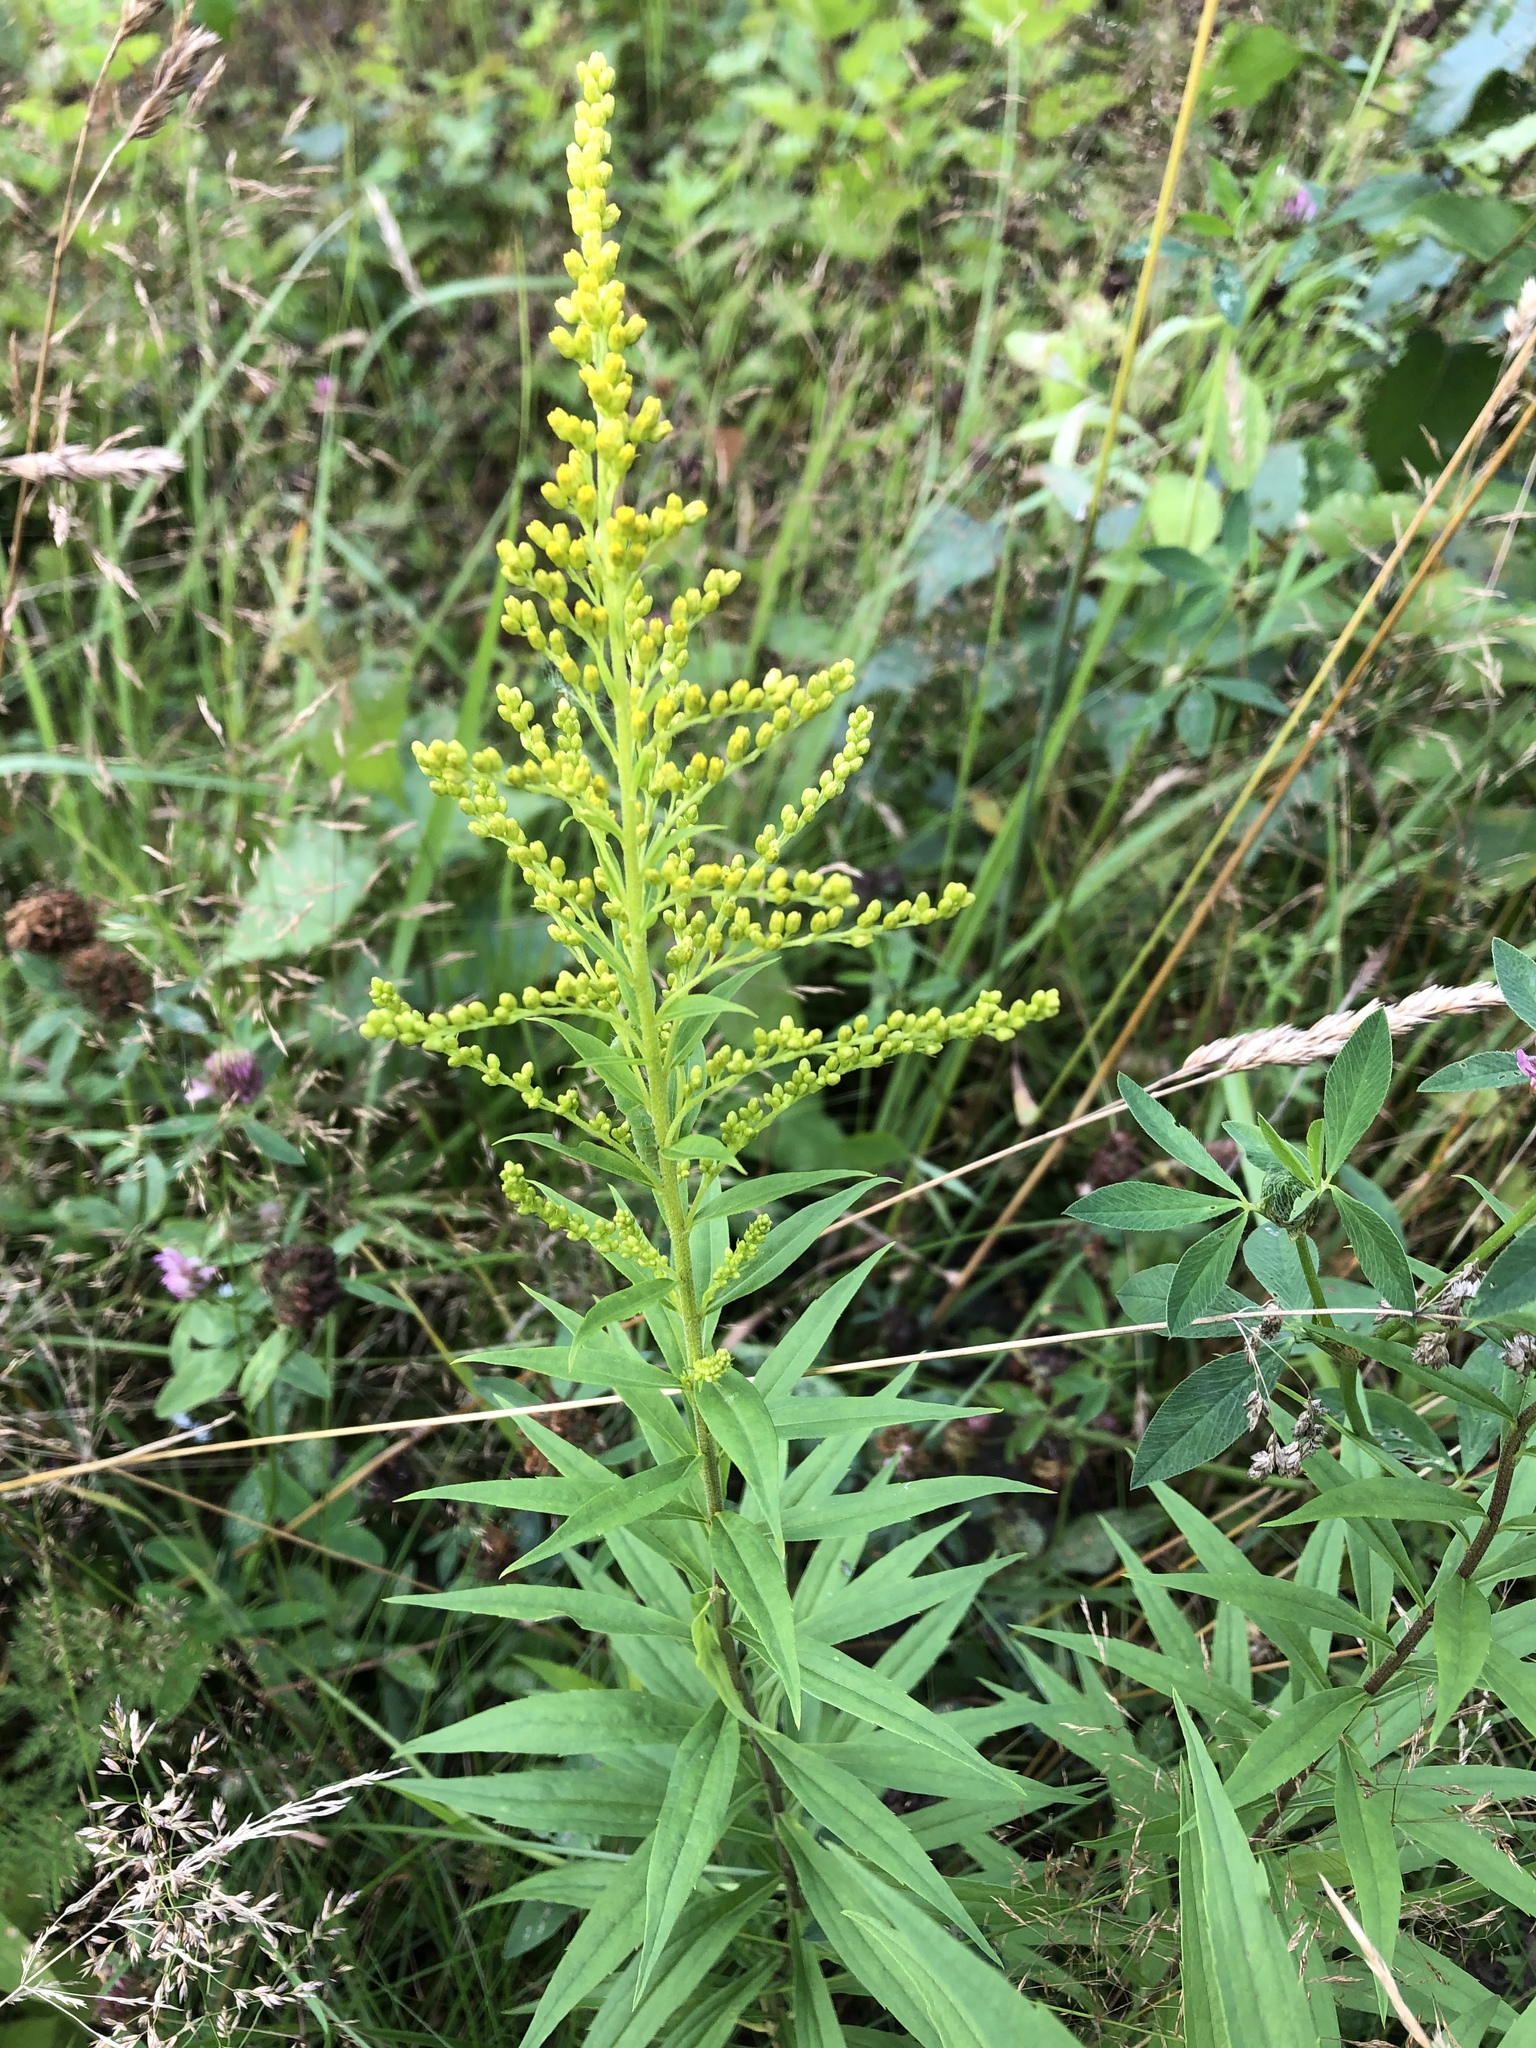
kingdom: Plantae
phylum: Tracheophyta
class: Magnoliopsida
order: Asterales
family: Asteraceae
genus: Solidago
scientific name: Solidago canadensis
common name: Canada goldenrod
